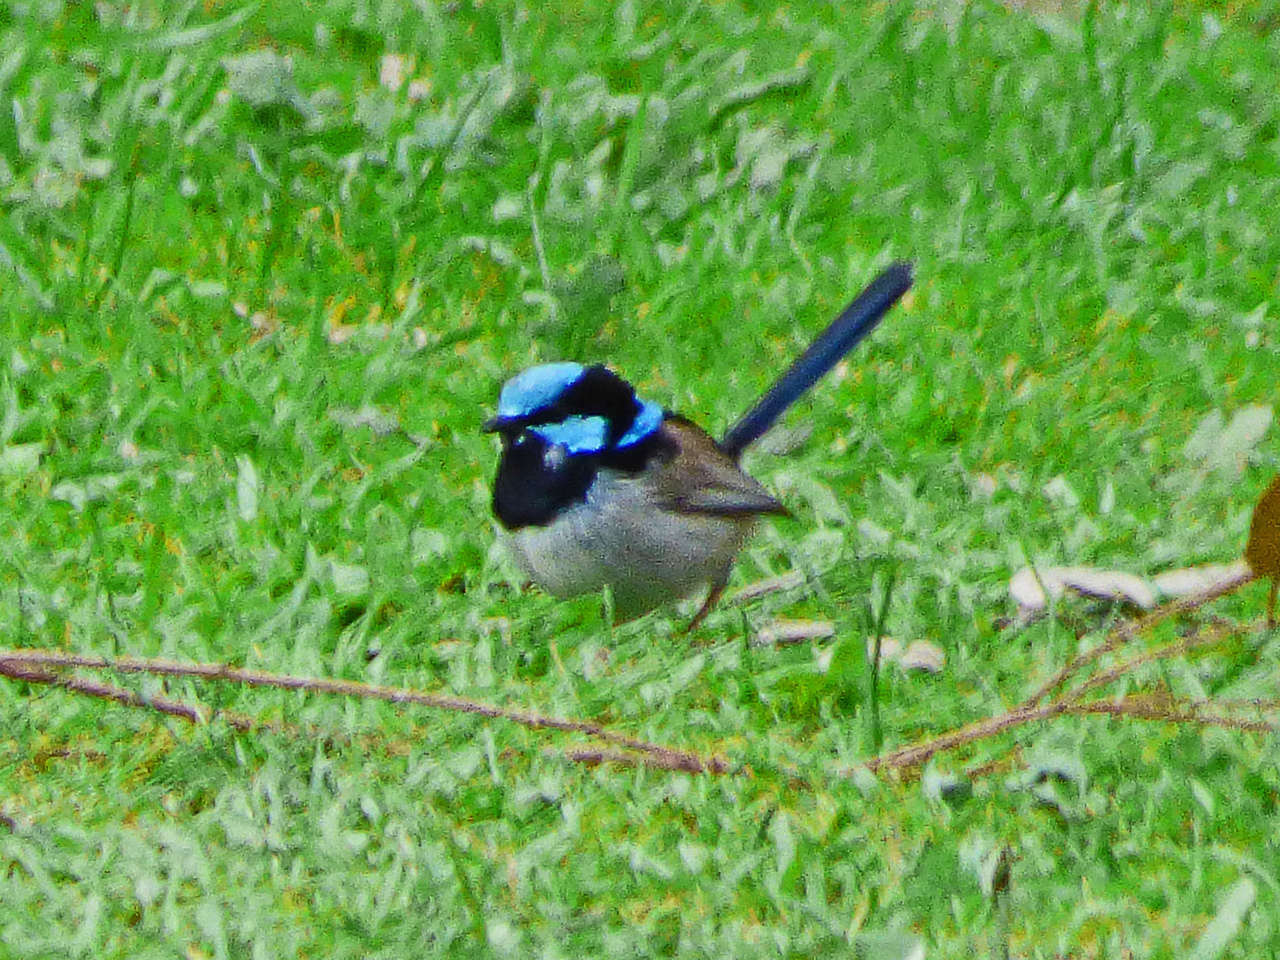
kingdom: Animalia
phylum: Chordata
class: Aves
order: Passeriformes
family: Maluridae
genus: Malurus
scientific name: Malurus cyaneus
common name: Superb fairywren
